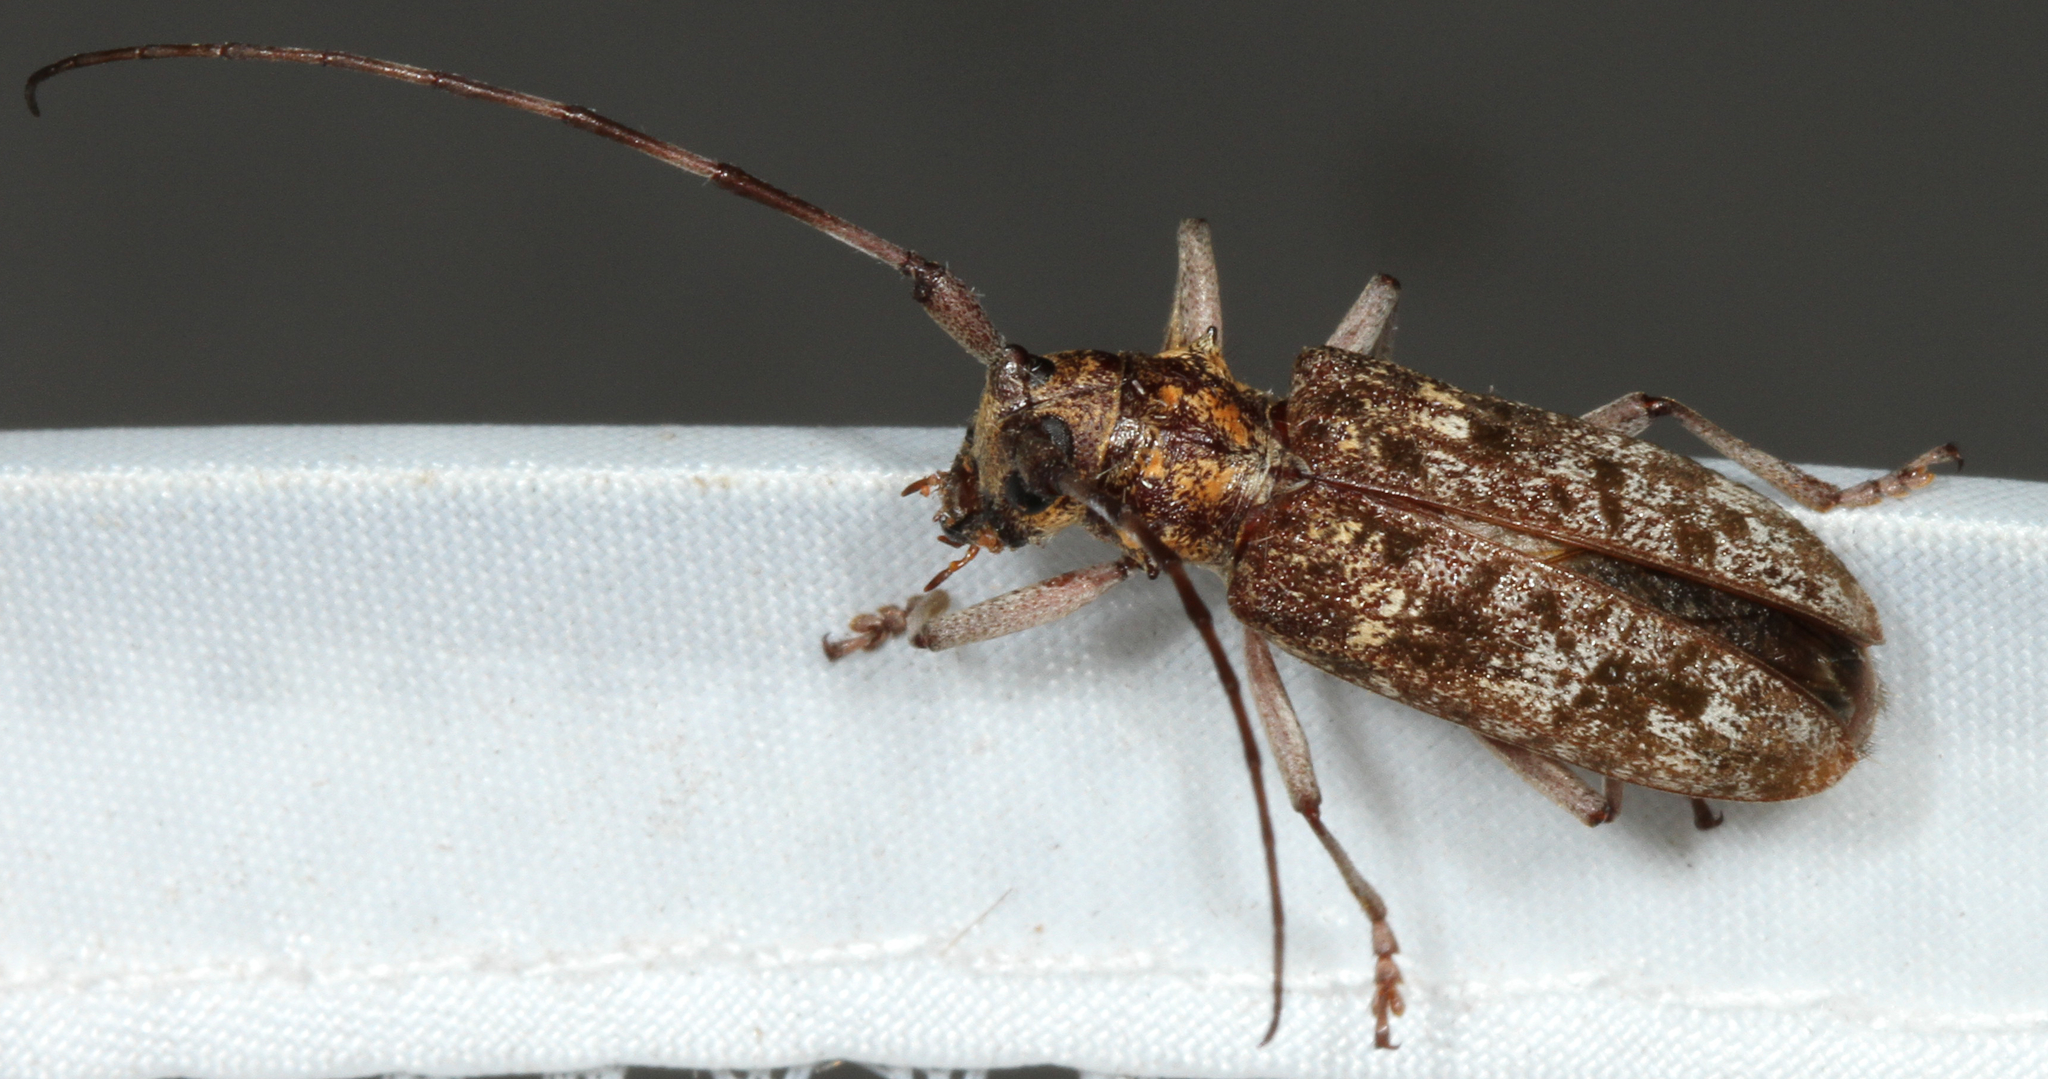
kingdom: Animalia
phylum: Arthropoda
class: Insecta
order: Coleoptera
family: Cerambycidae
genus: Monochamus
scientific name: Monochamus carolinensis
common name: Carolina pine sawyer
